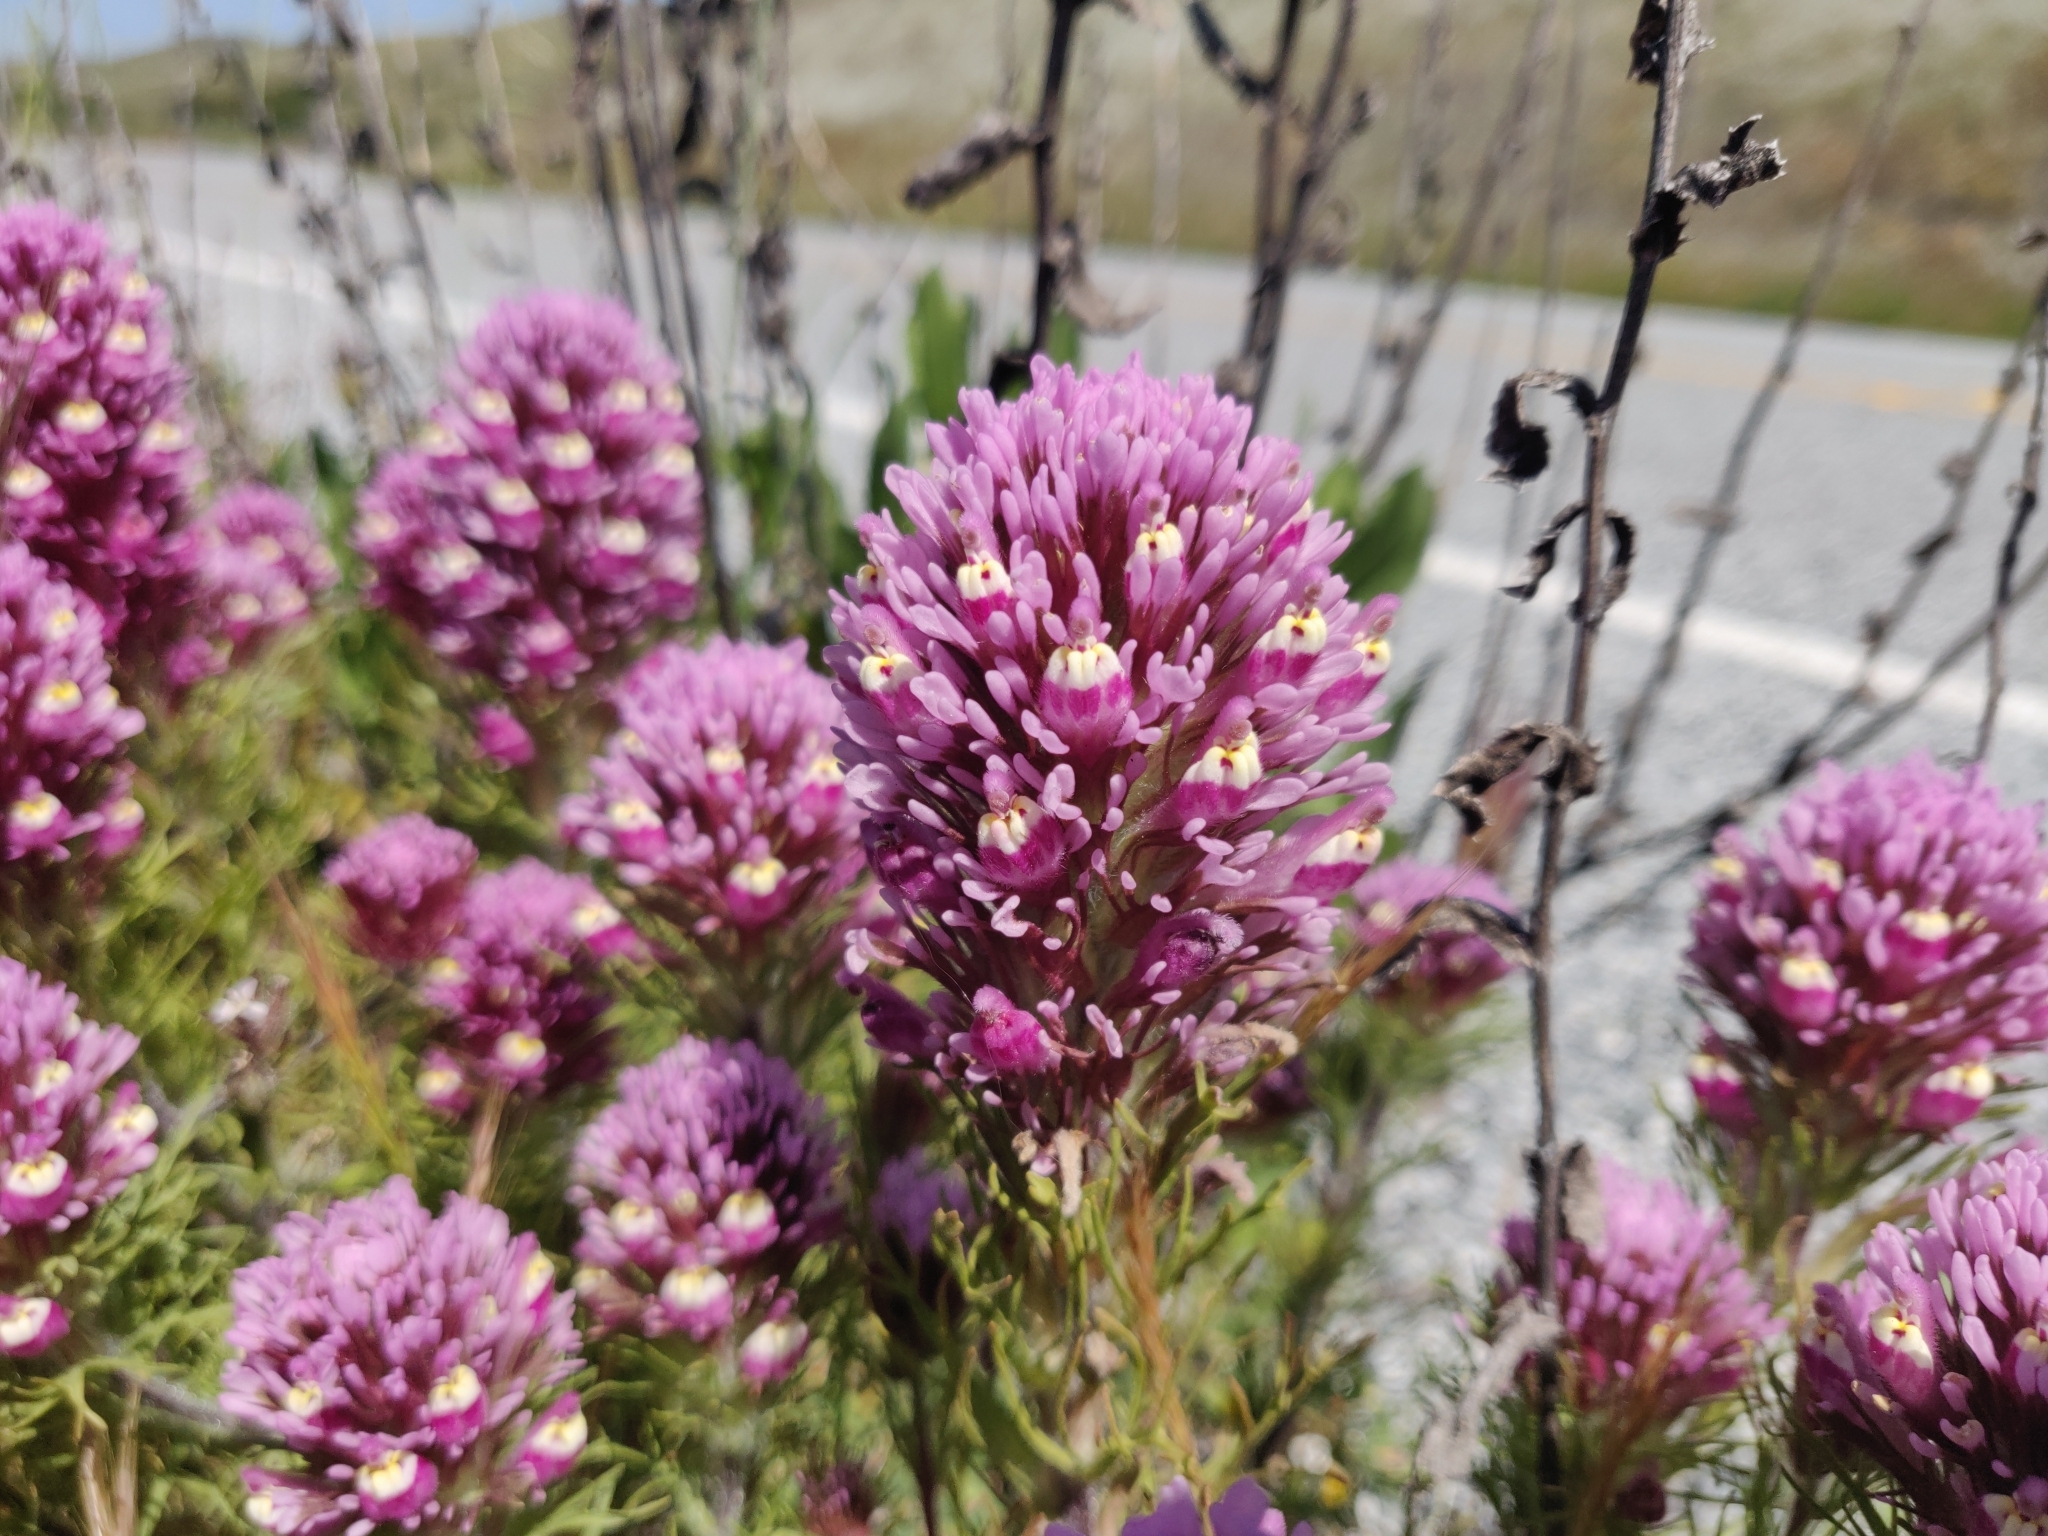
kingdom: Plantae
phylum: Tracheophyta
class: Magnoliopsida
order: Lamiales
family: Orobanchaceae
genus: Castilleja
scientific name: Castilleja exserta
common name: Purple owl-clover
